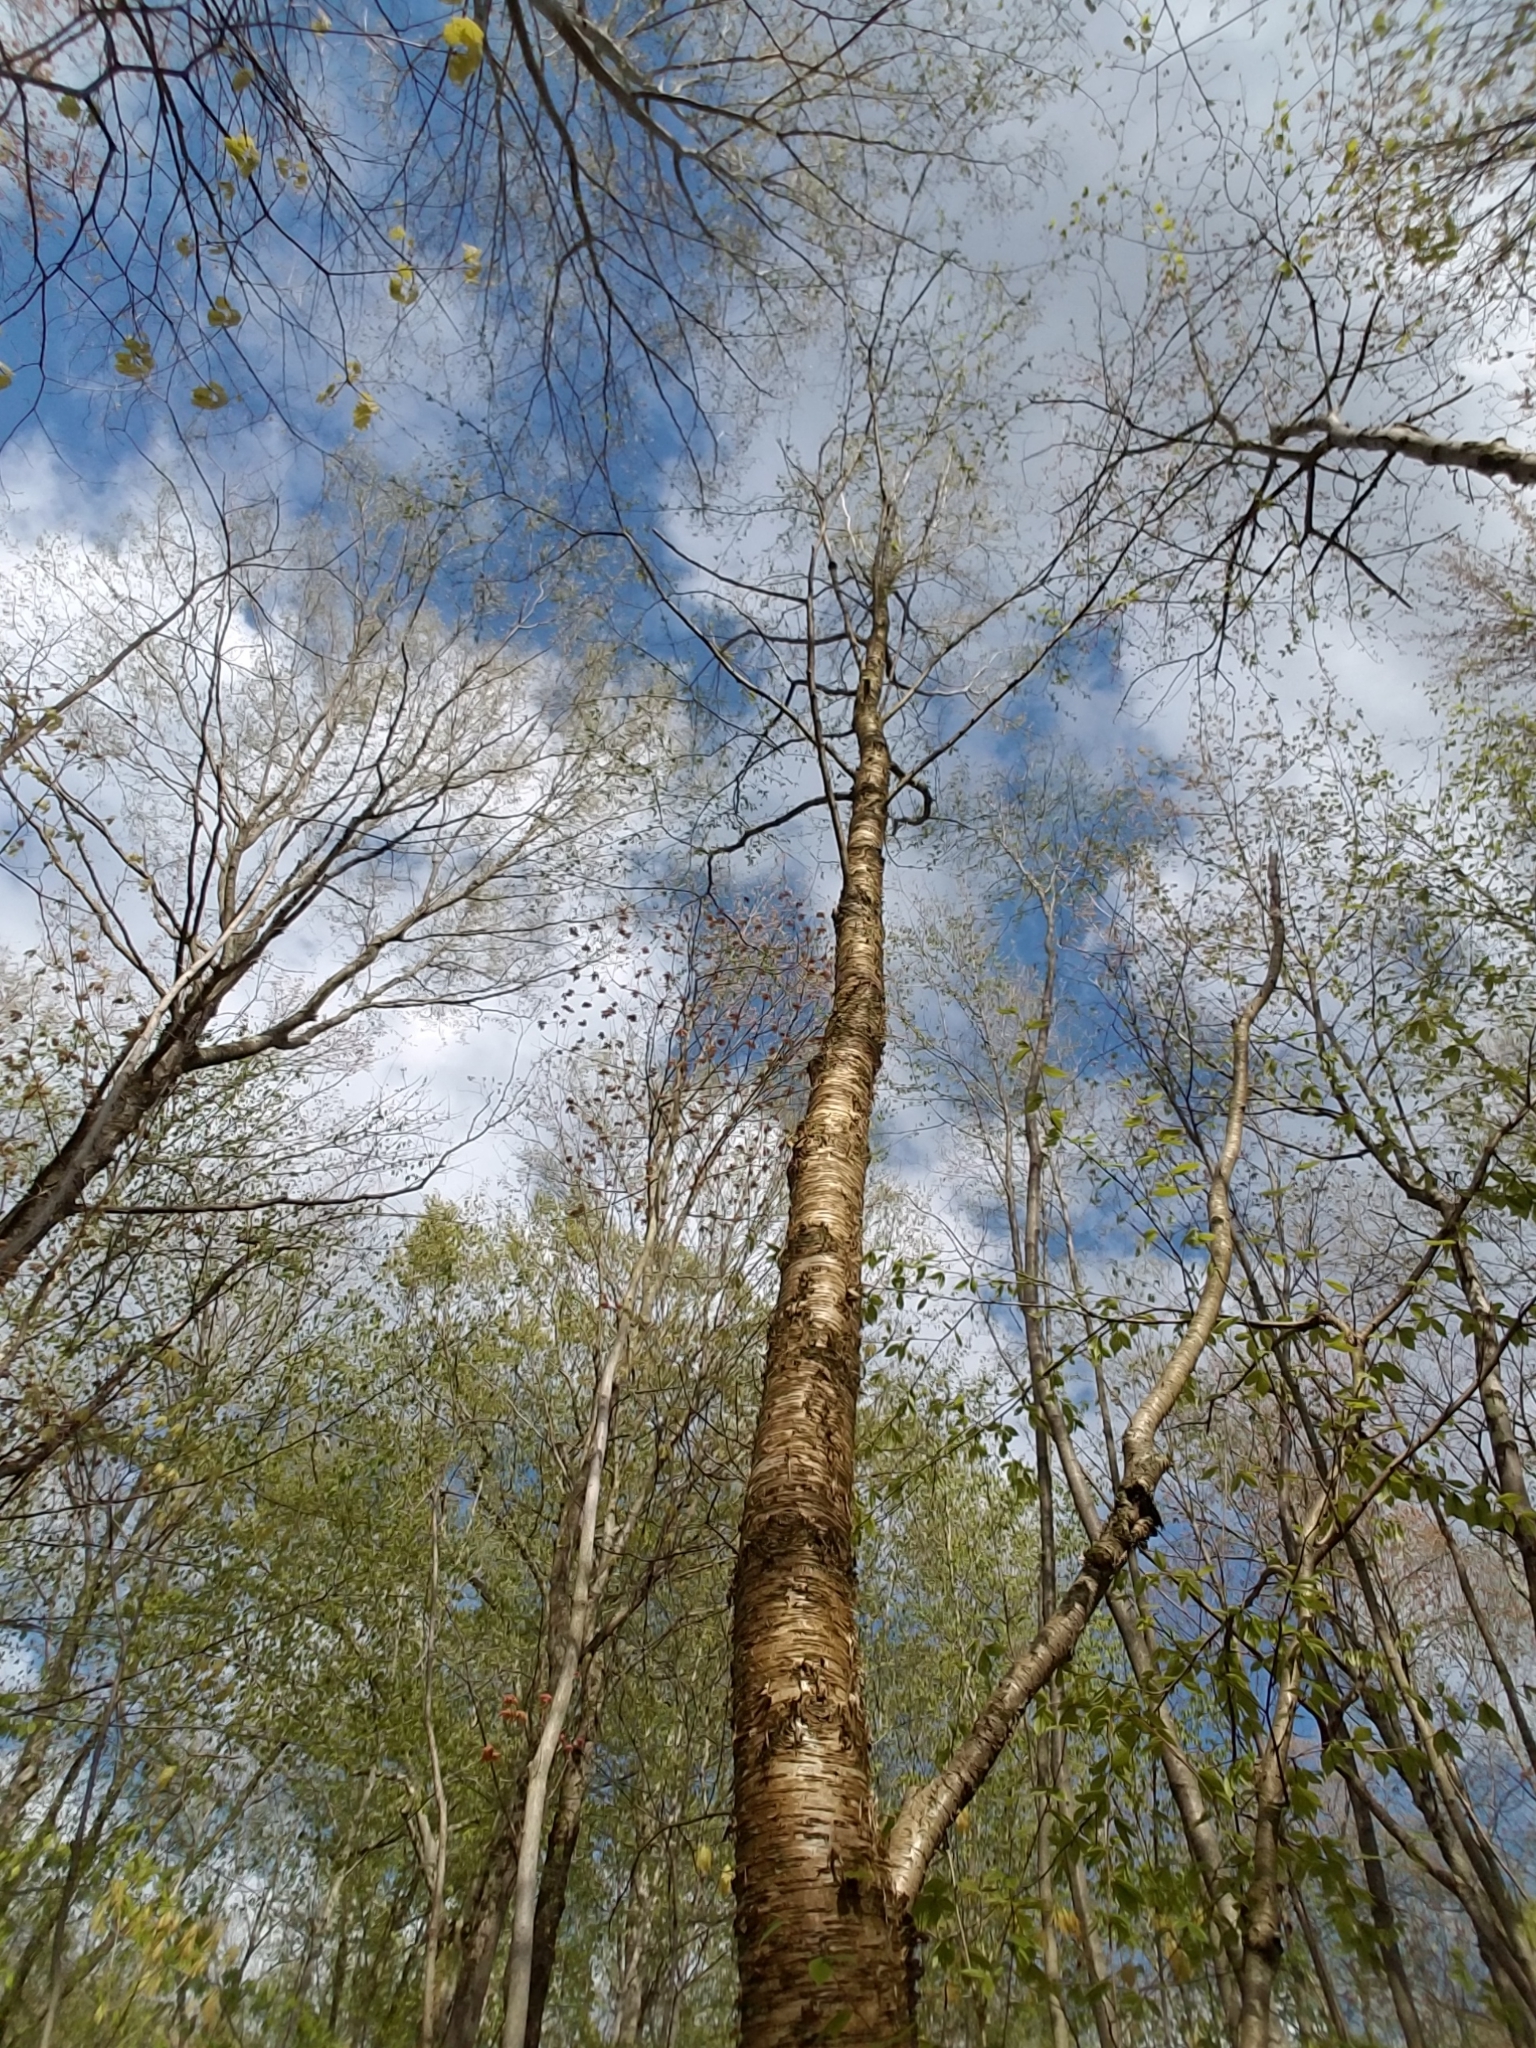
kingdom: Plantae
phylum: Tracheophyta
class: Magnoliopsida
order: Fagales
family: Betulaceae
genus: Betula
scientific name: Betula alleghaniensis
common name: Yellow birch
